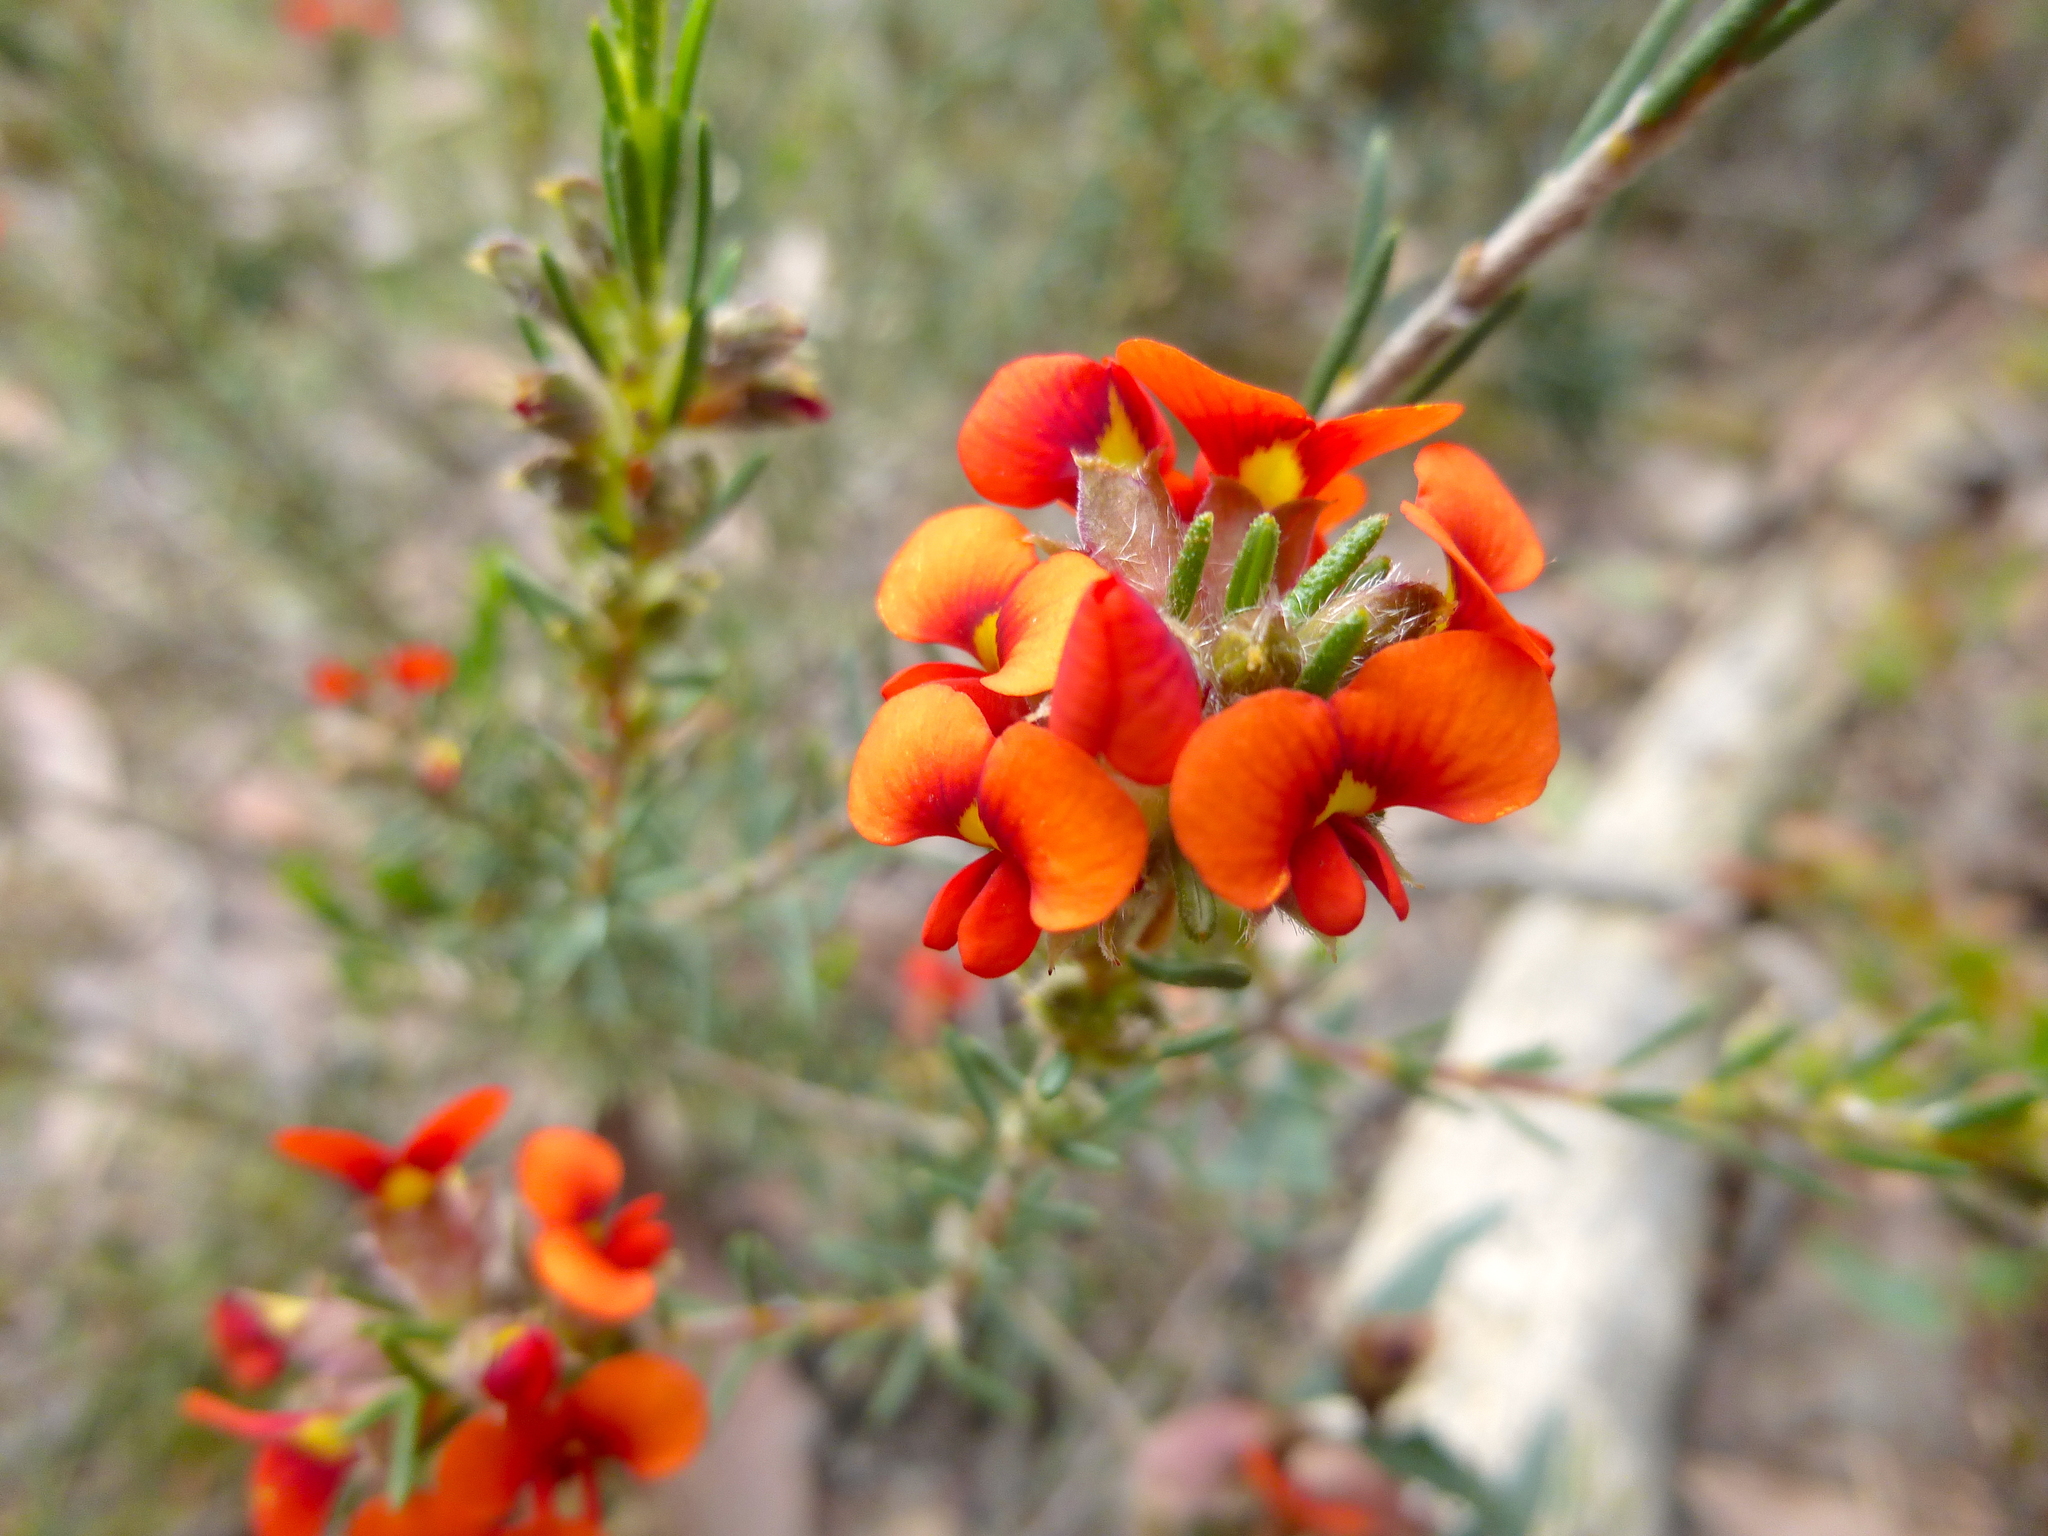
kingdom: Plantae
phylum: Tracheophyta
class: Magnoliopsida
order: Fabales
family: Fabaceae
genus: Dillwynia
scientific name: Dillwynia sericea
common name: Showy parrot-pea
